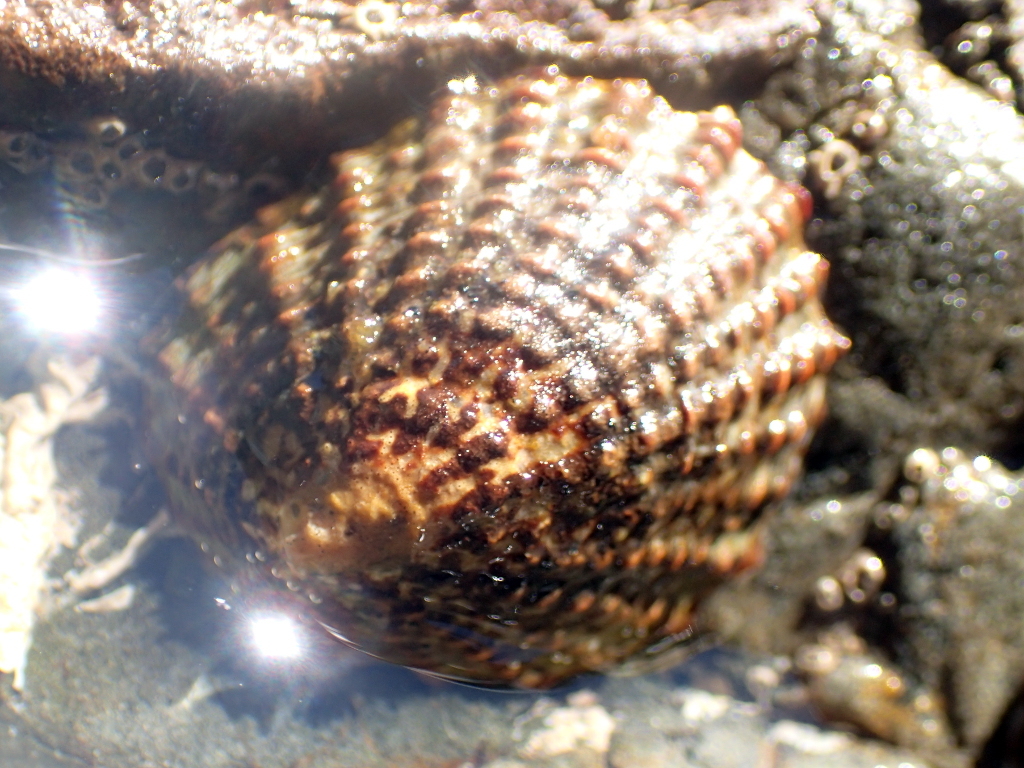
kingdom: Animalia
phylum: Mollusca
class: Gastropoda
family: Nacellidae
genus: Cellana
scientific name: Cellana denticulata
